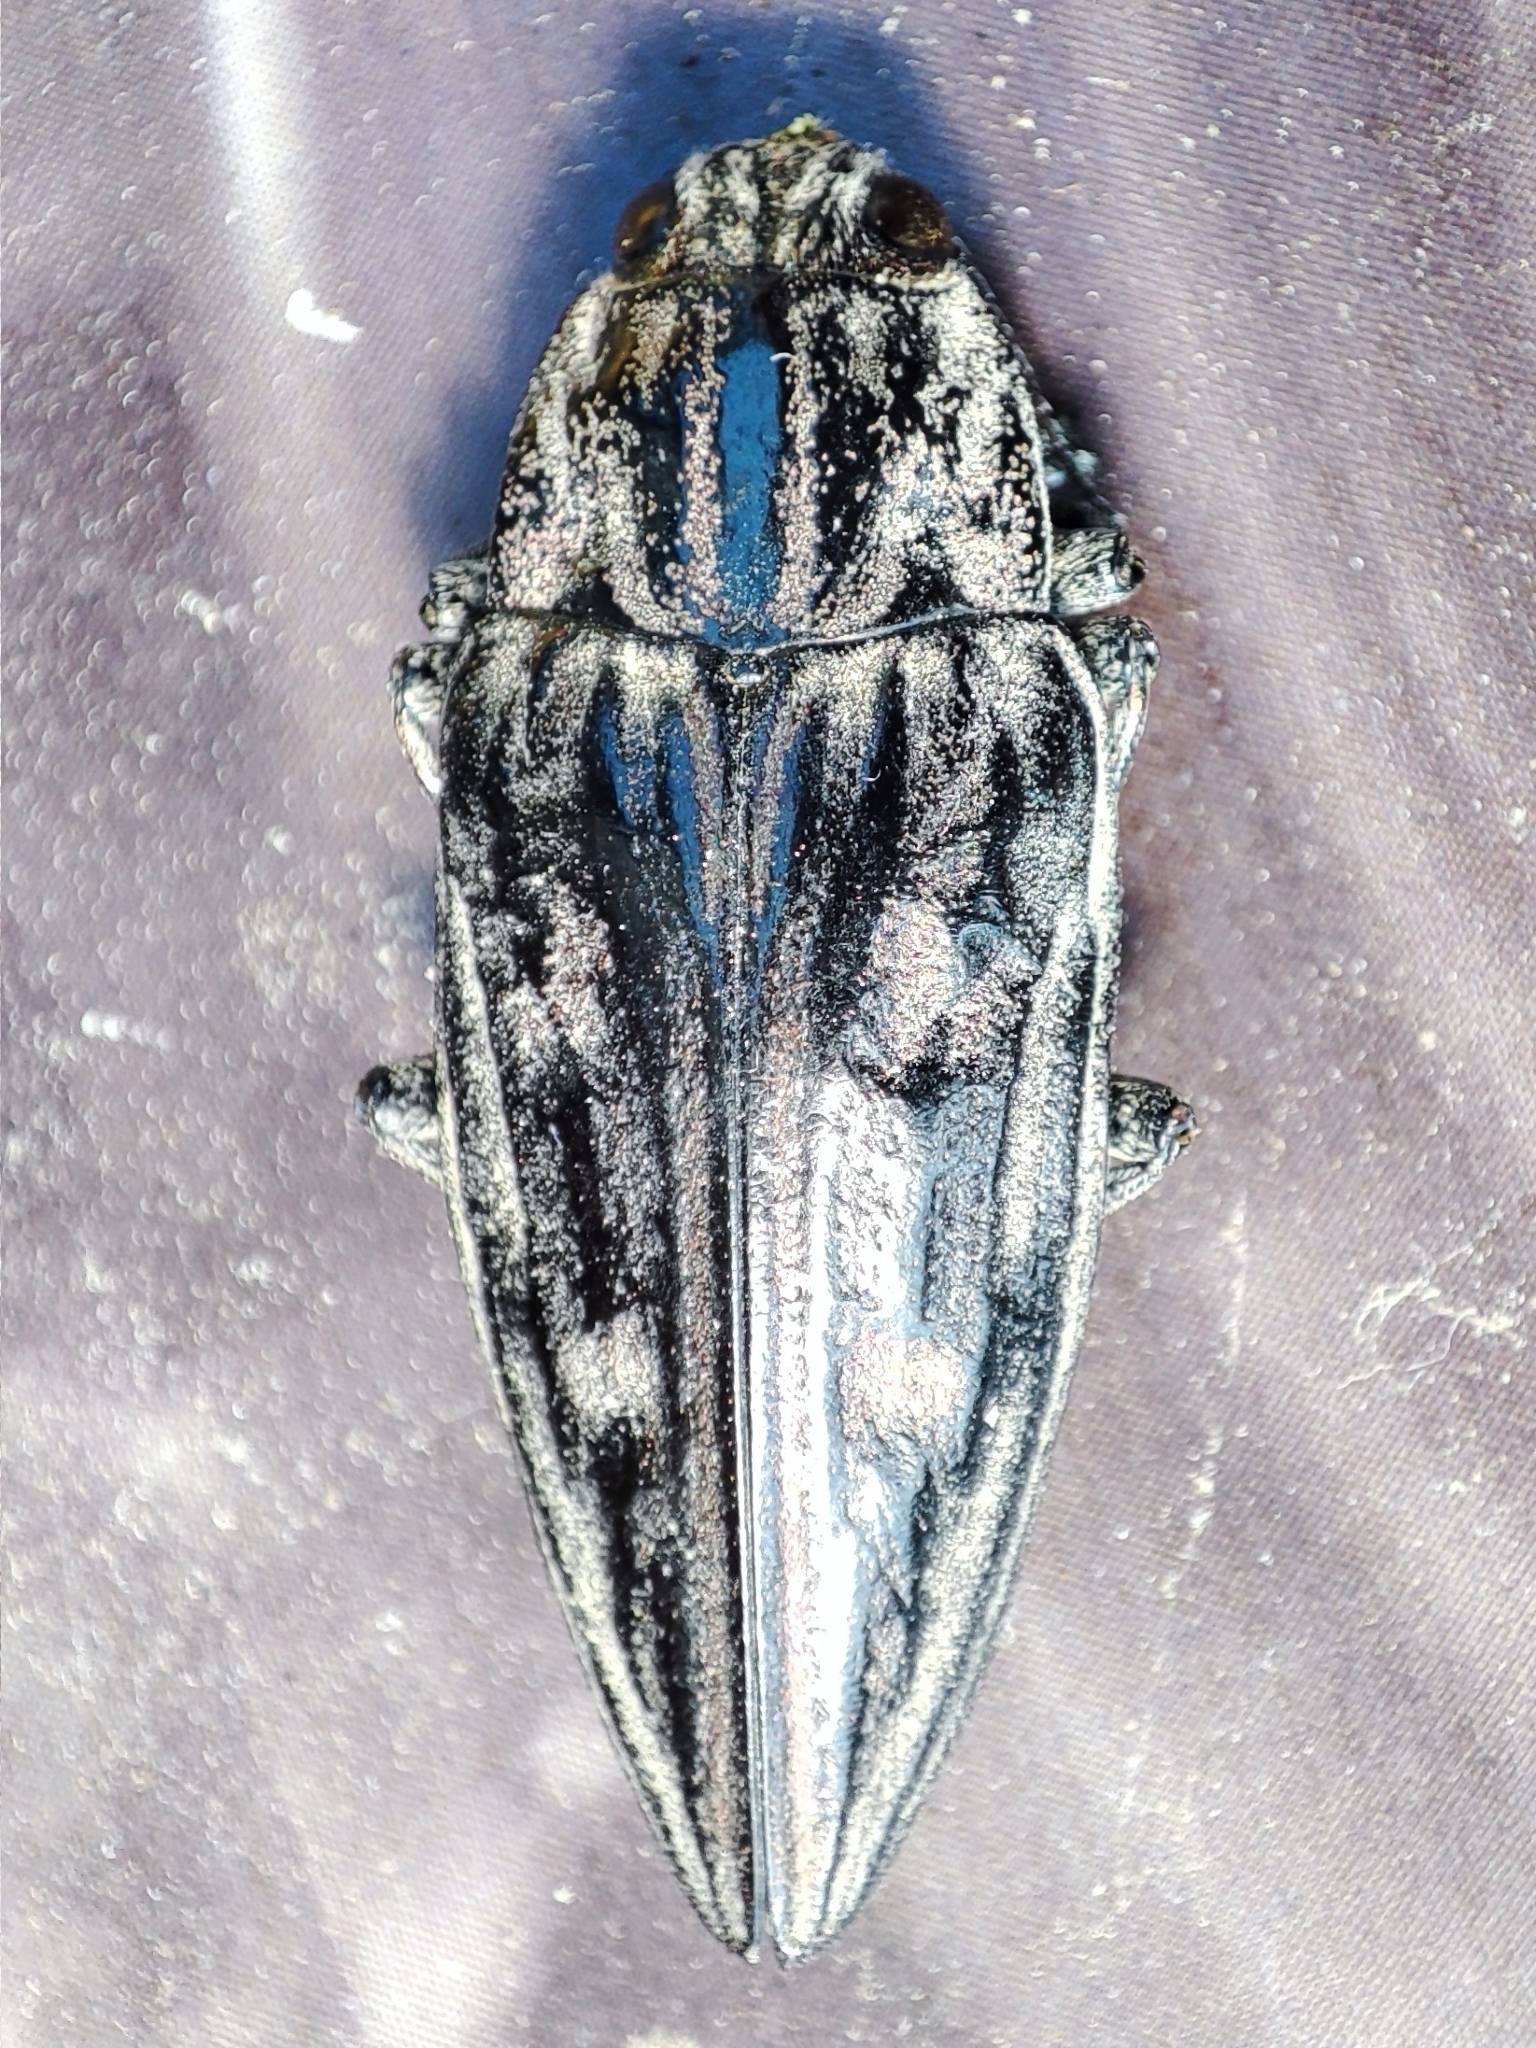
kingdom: Animalia
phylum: Arthropoda
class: Insecta
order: Coleoptera
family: Buprestidae
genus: Chalcophora
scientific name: Chalcophora mariana
